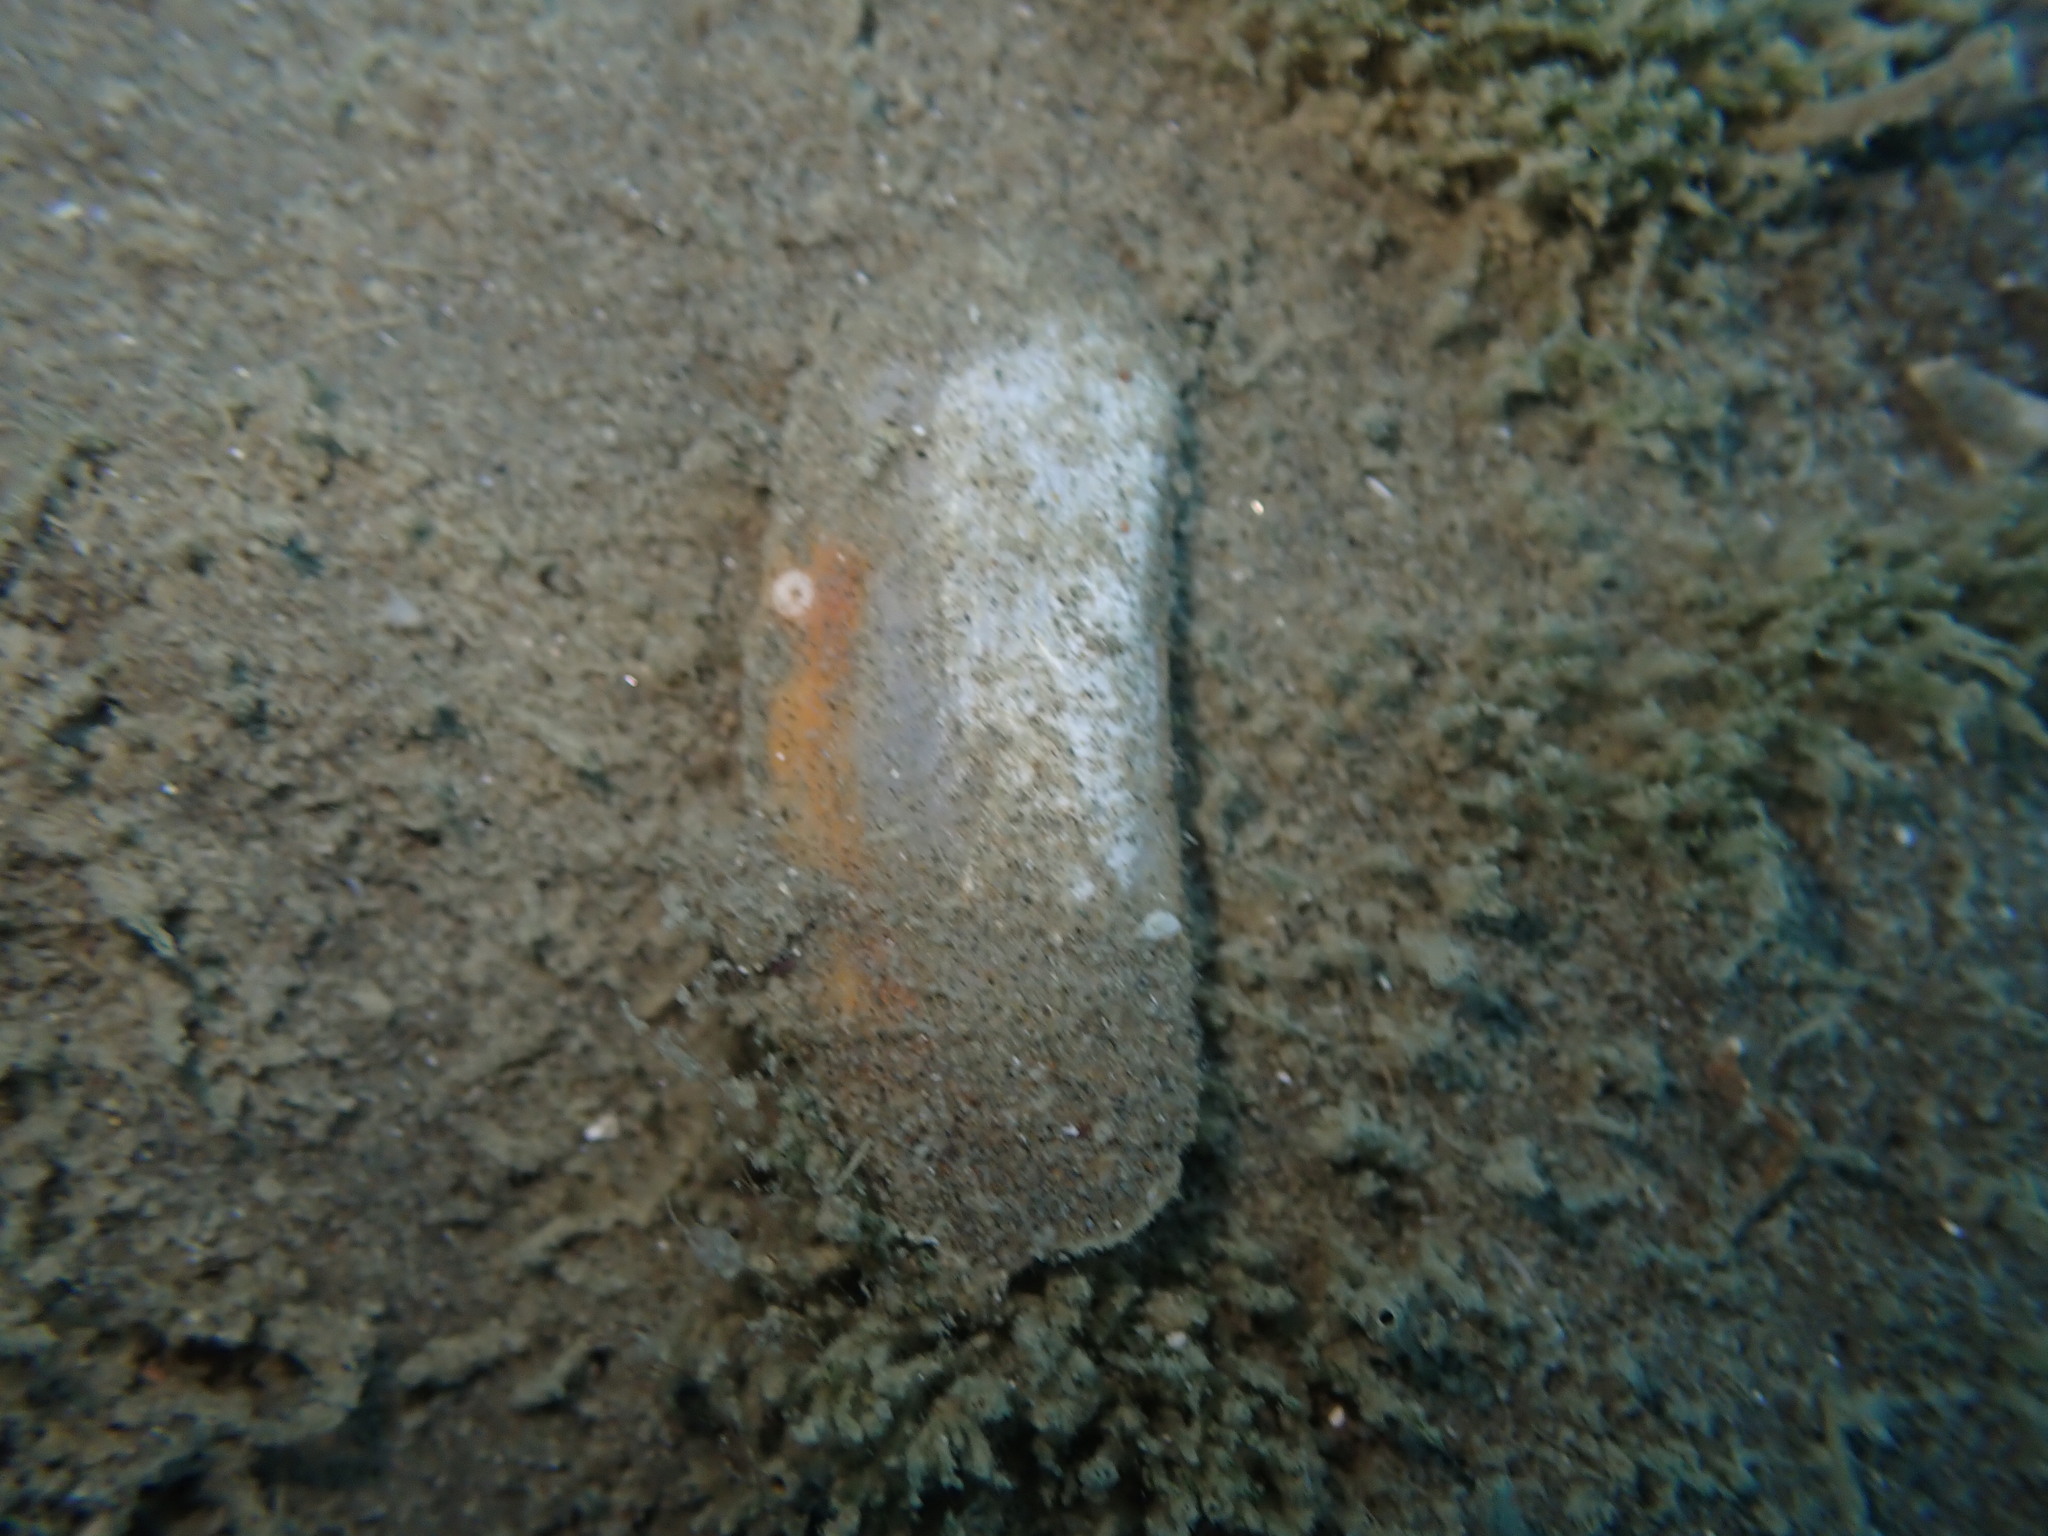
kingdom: Animalia
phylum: Mollusca
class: Bivalvia
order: Venerida
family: Mactridae
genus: Zenatia
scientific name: Zenatia acinaces
